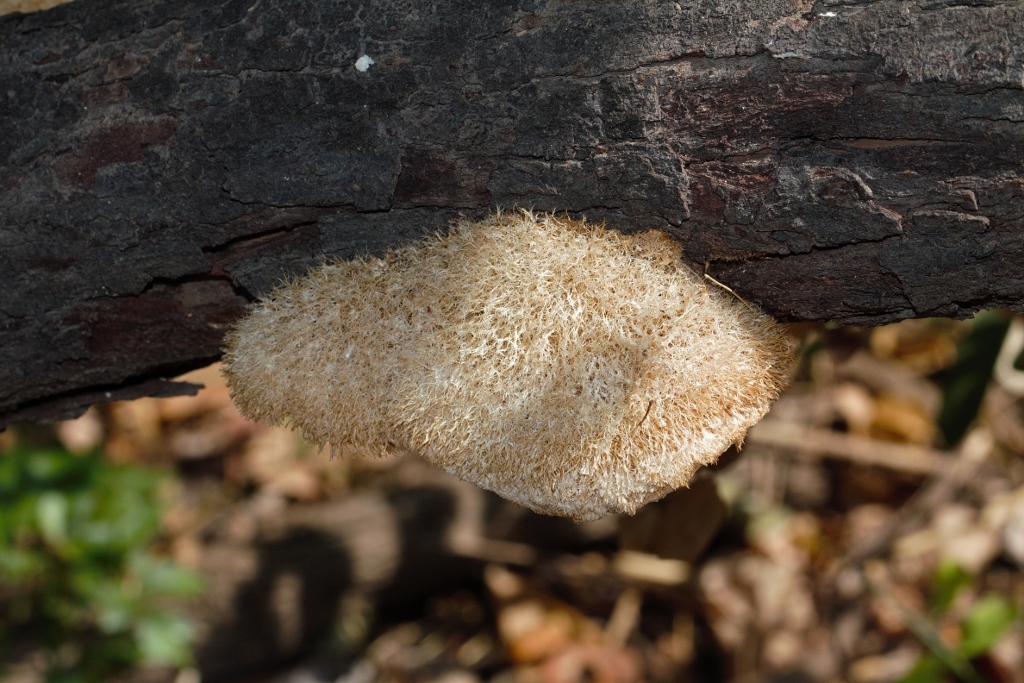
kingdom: Fungi
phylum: Basidiomycota
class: Agaricomycetes
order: Polyporales
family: Polyporaceae
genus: Funalia
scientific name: Funalia leonina
